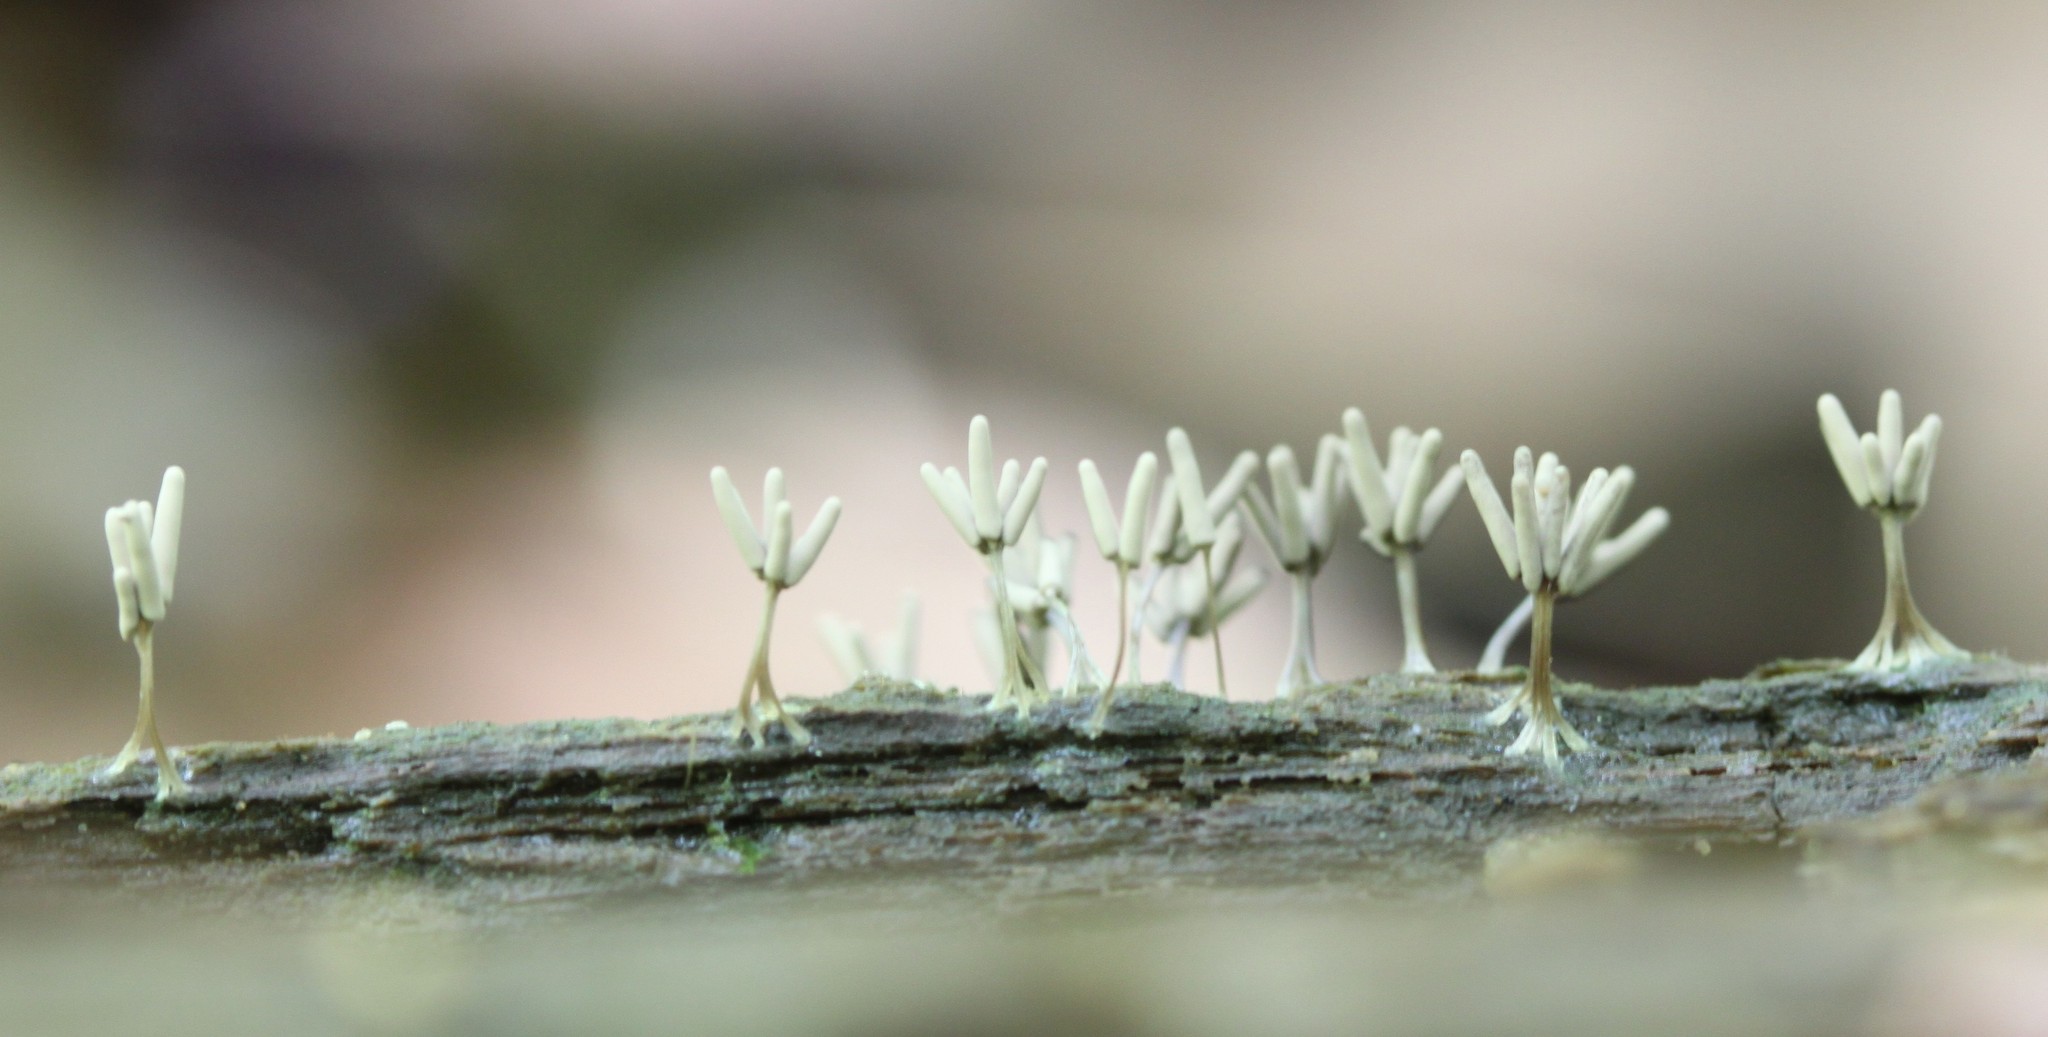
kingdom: Protozoa
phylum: Mycetozoa
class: Myxomycetes
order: Trichiales
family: Arcyriaceae
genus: Arcyria
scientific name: Arcyria cinerea
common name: White carnival candy slime mold
